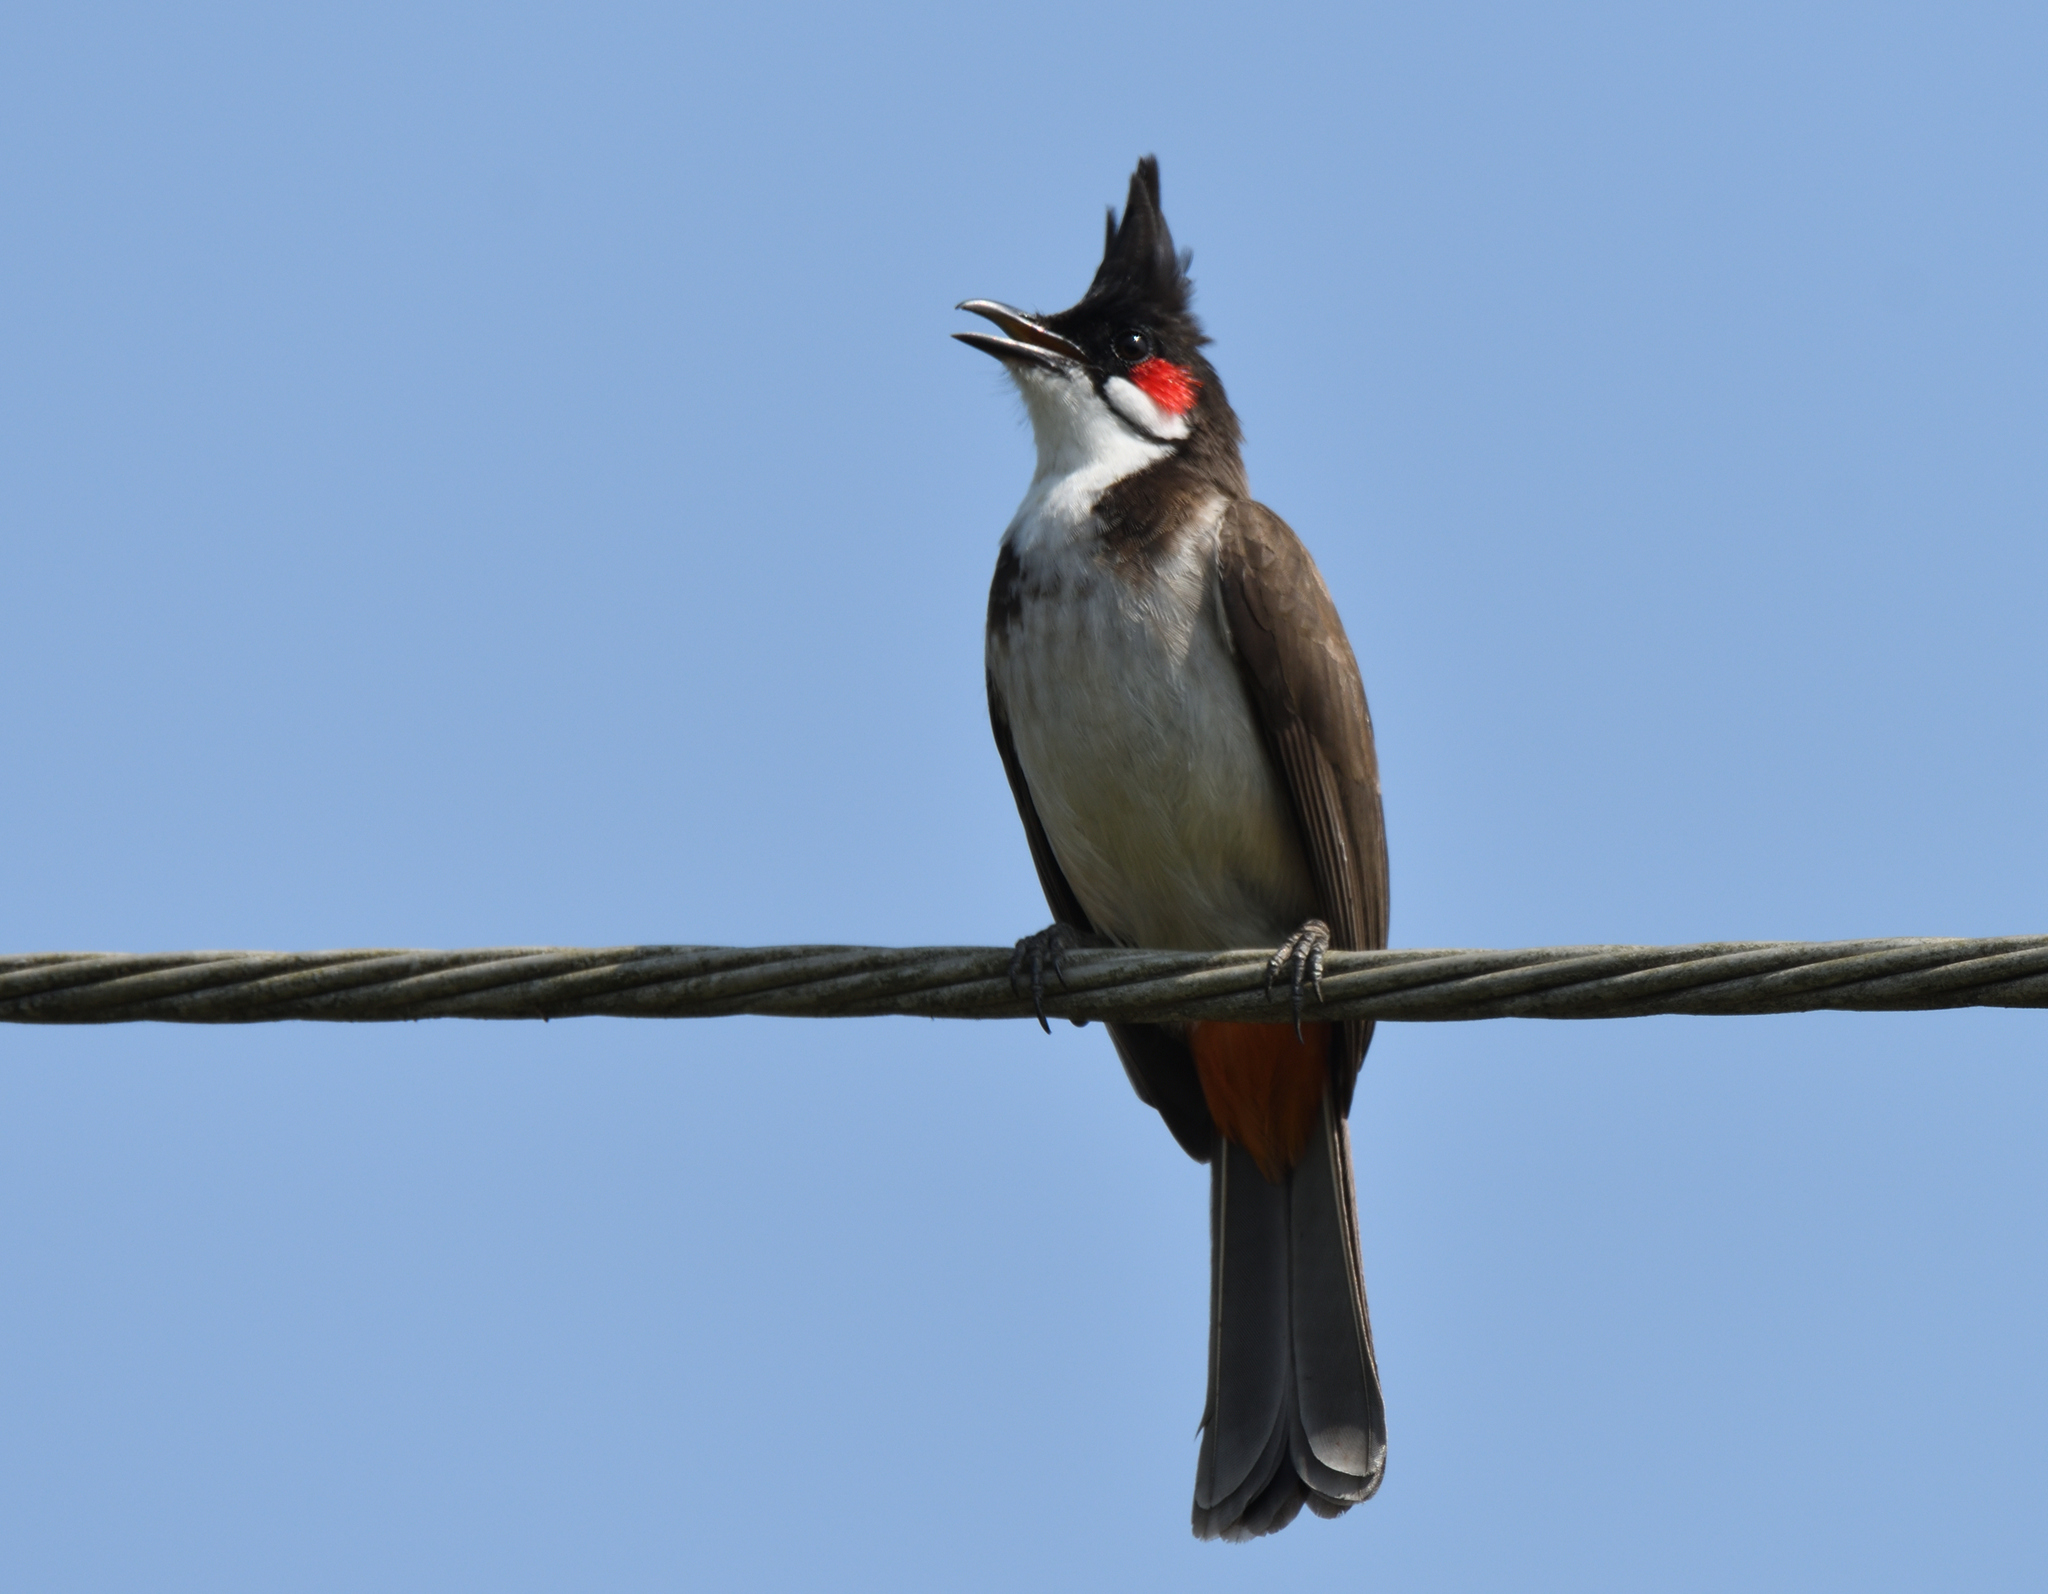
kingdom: Animalia
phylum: Chordata
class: Aves
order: Passeriformes
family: Pycnonotidae
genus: Pycnonotus
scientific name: Pycnonotus jocosus
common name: Red-whiskered bulbul
